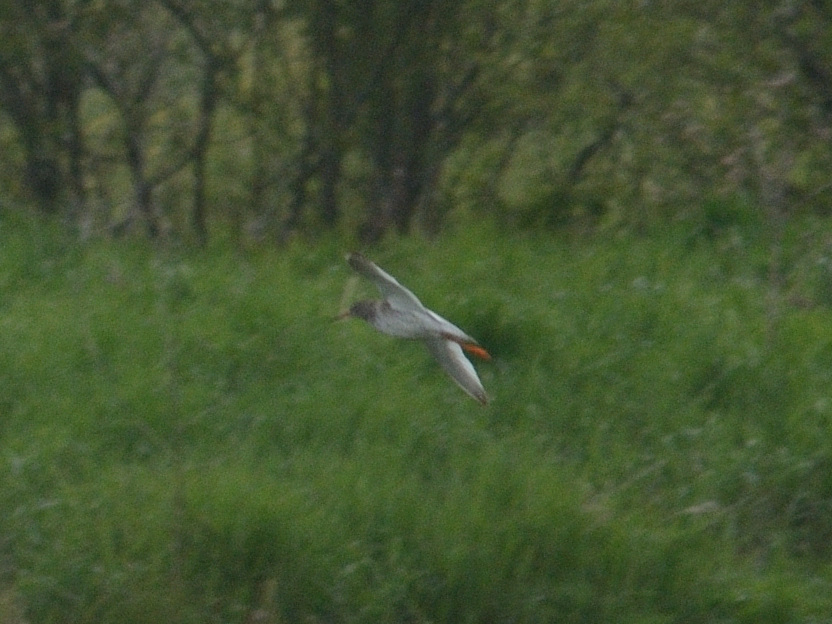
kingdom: Animalia
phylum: Chordata
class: Aves
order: Charadriiformes
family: Scolopacidae
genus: Tringa
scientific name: Tringa totanus
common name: Common redshank
